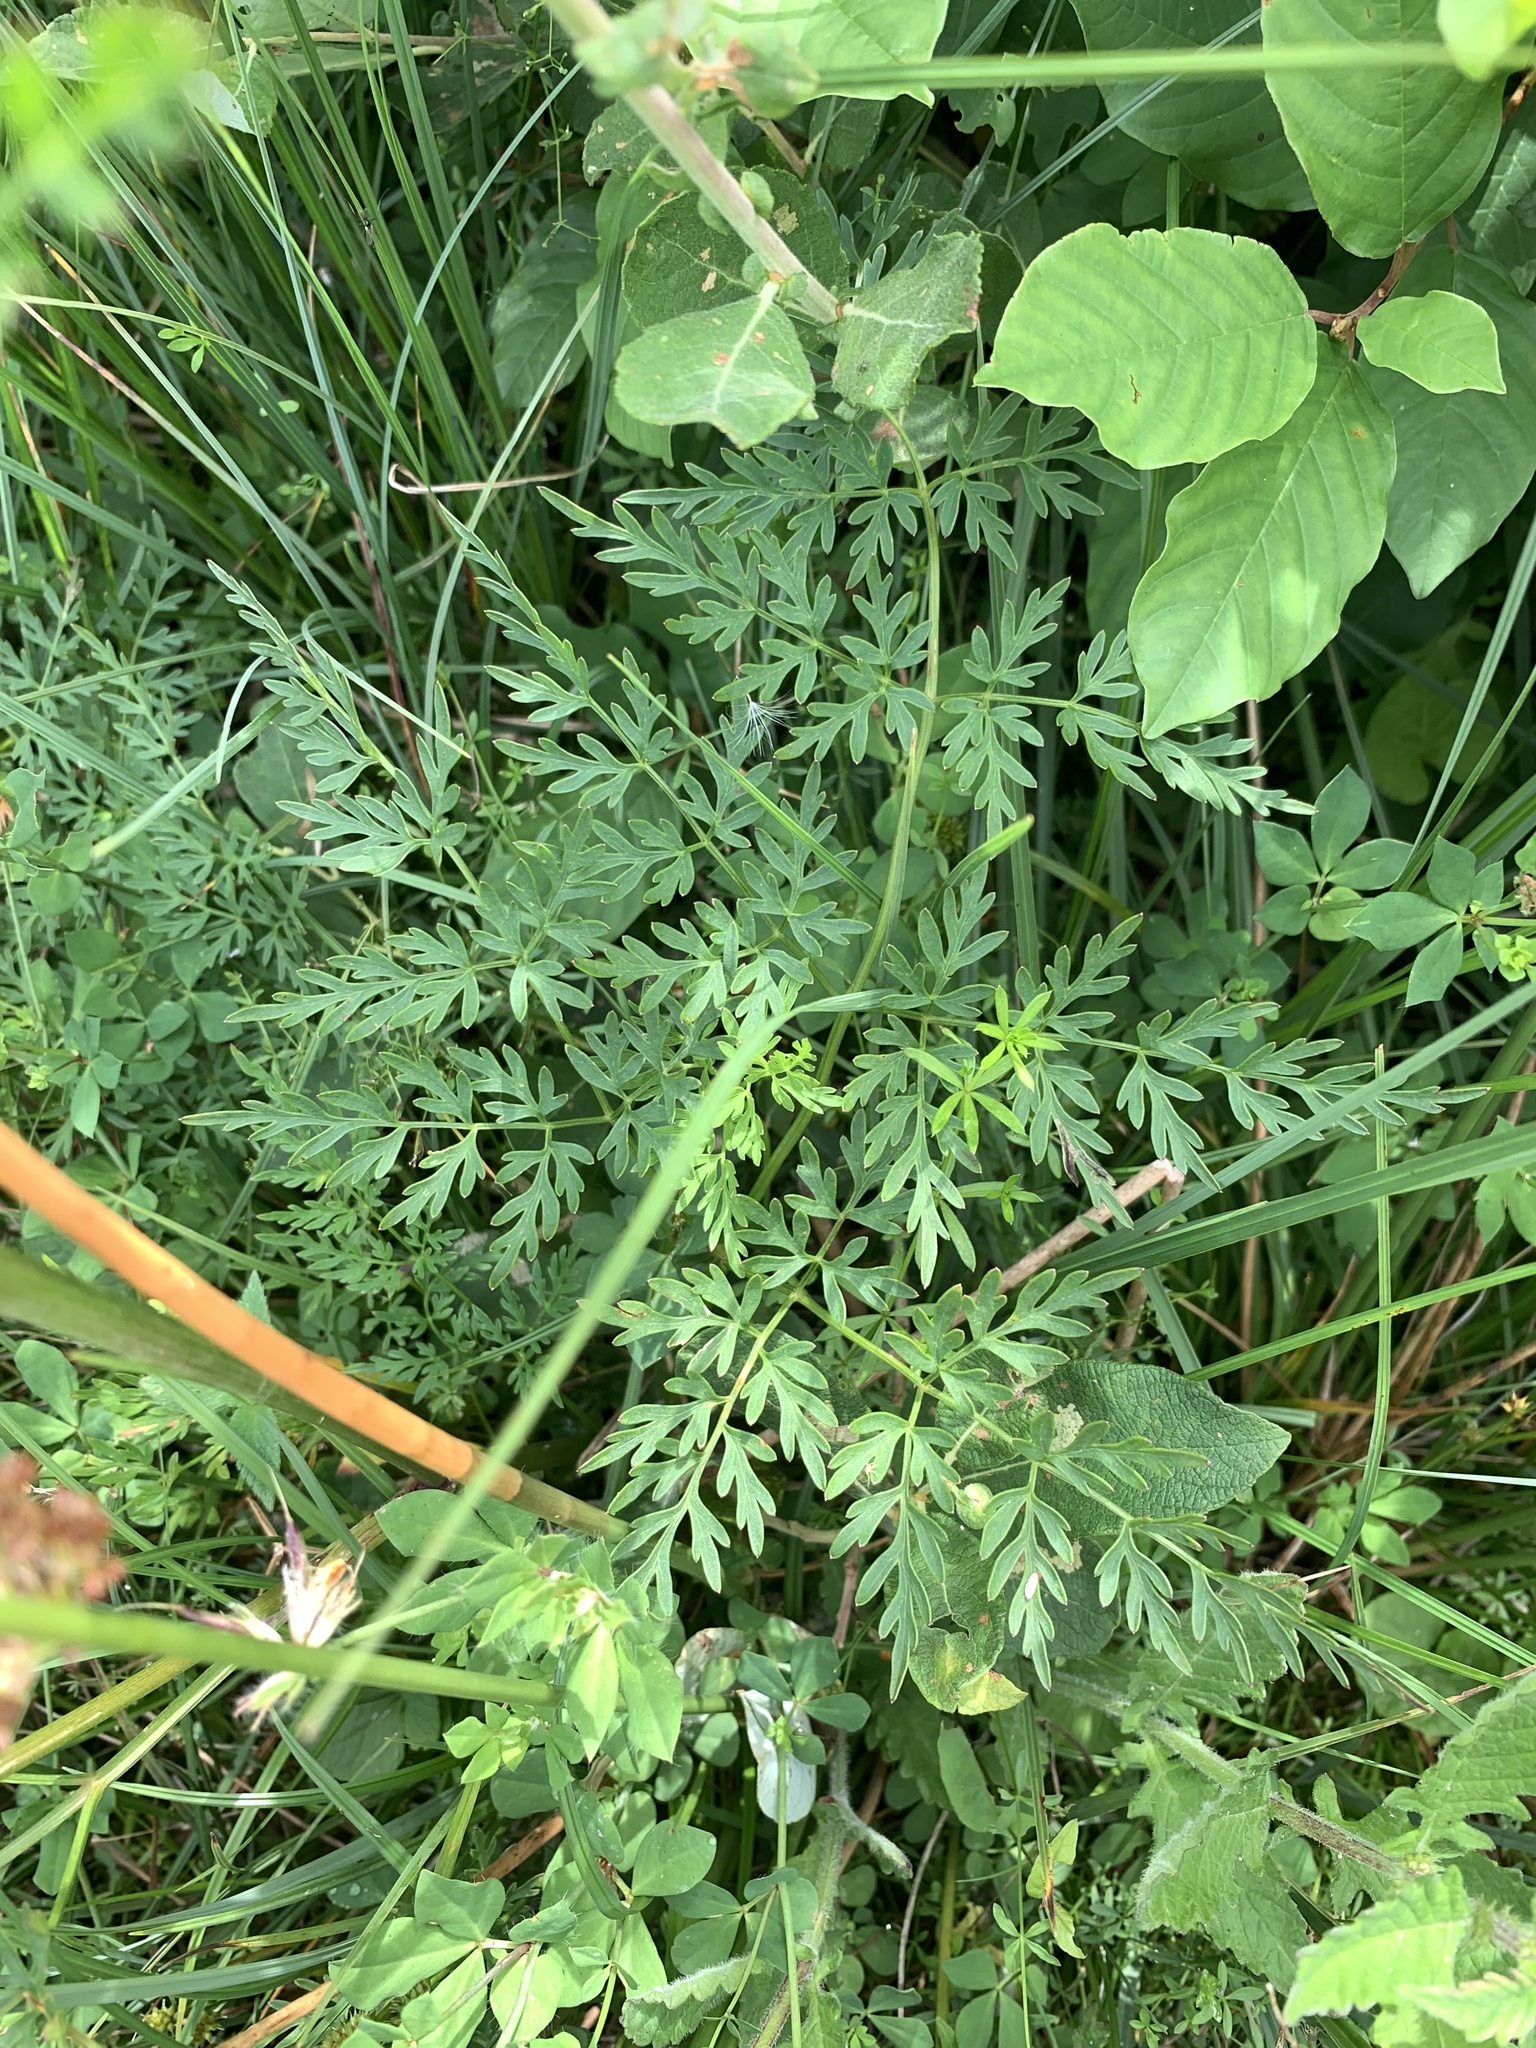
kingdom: Plantae
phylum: Tracheophyta
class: Magnoliopsida
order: Apiales
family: Apiaceae
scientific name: Apiaceae
